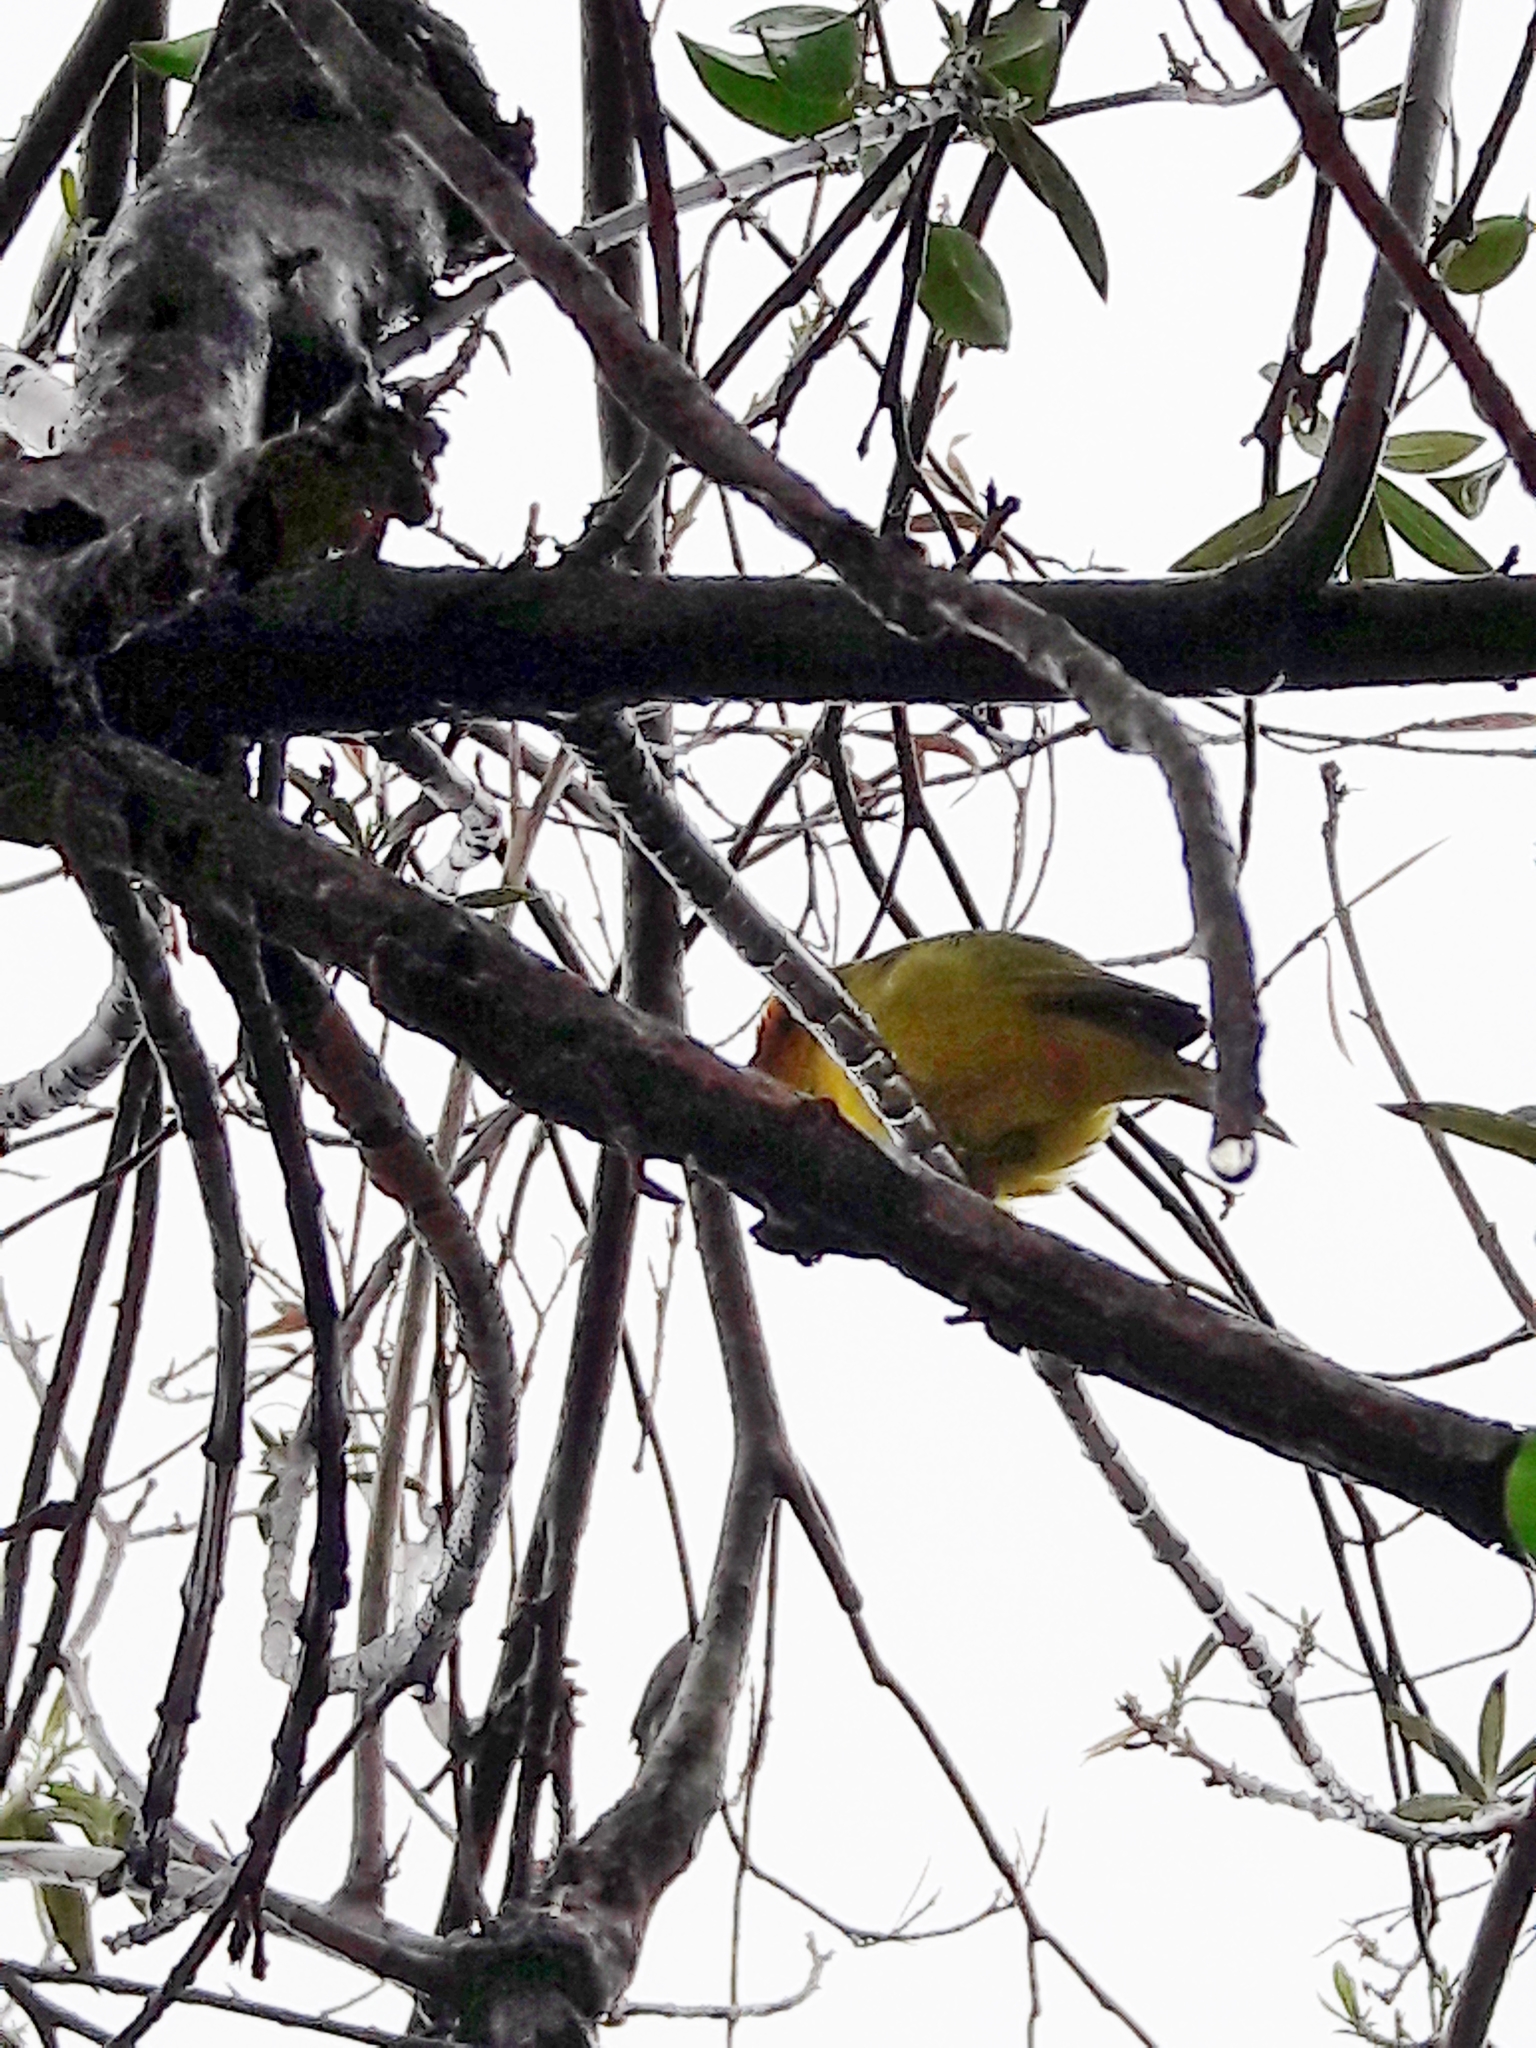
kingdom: Animalia
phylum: Chordata
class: Aves
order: Passeriformes
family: Thraupidae
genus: Sicalis
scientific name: Sicalis flaveola
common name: Saffron finch
